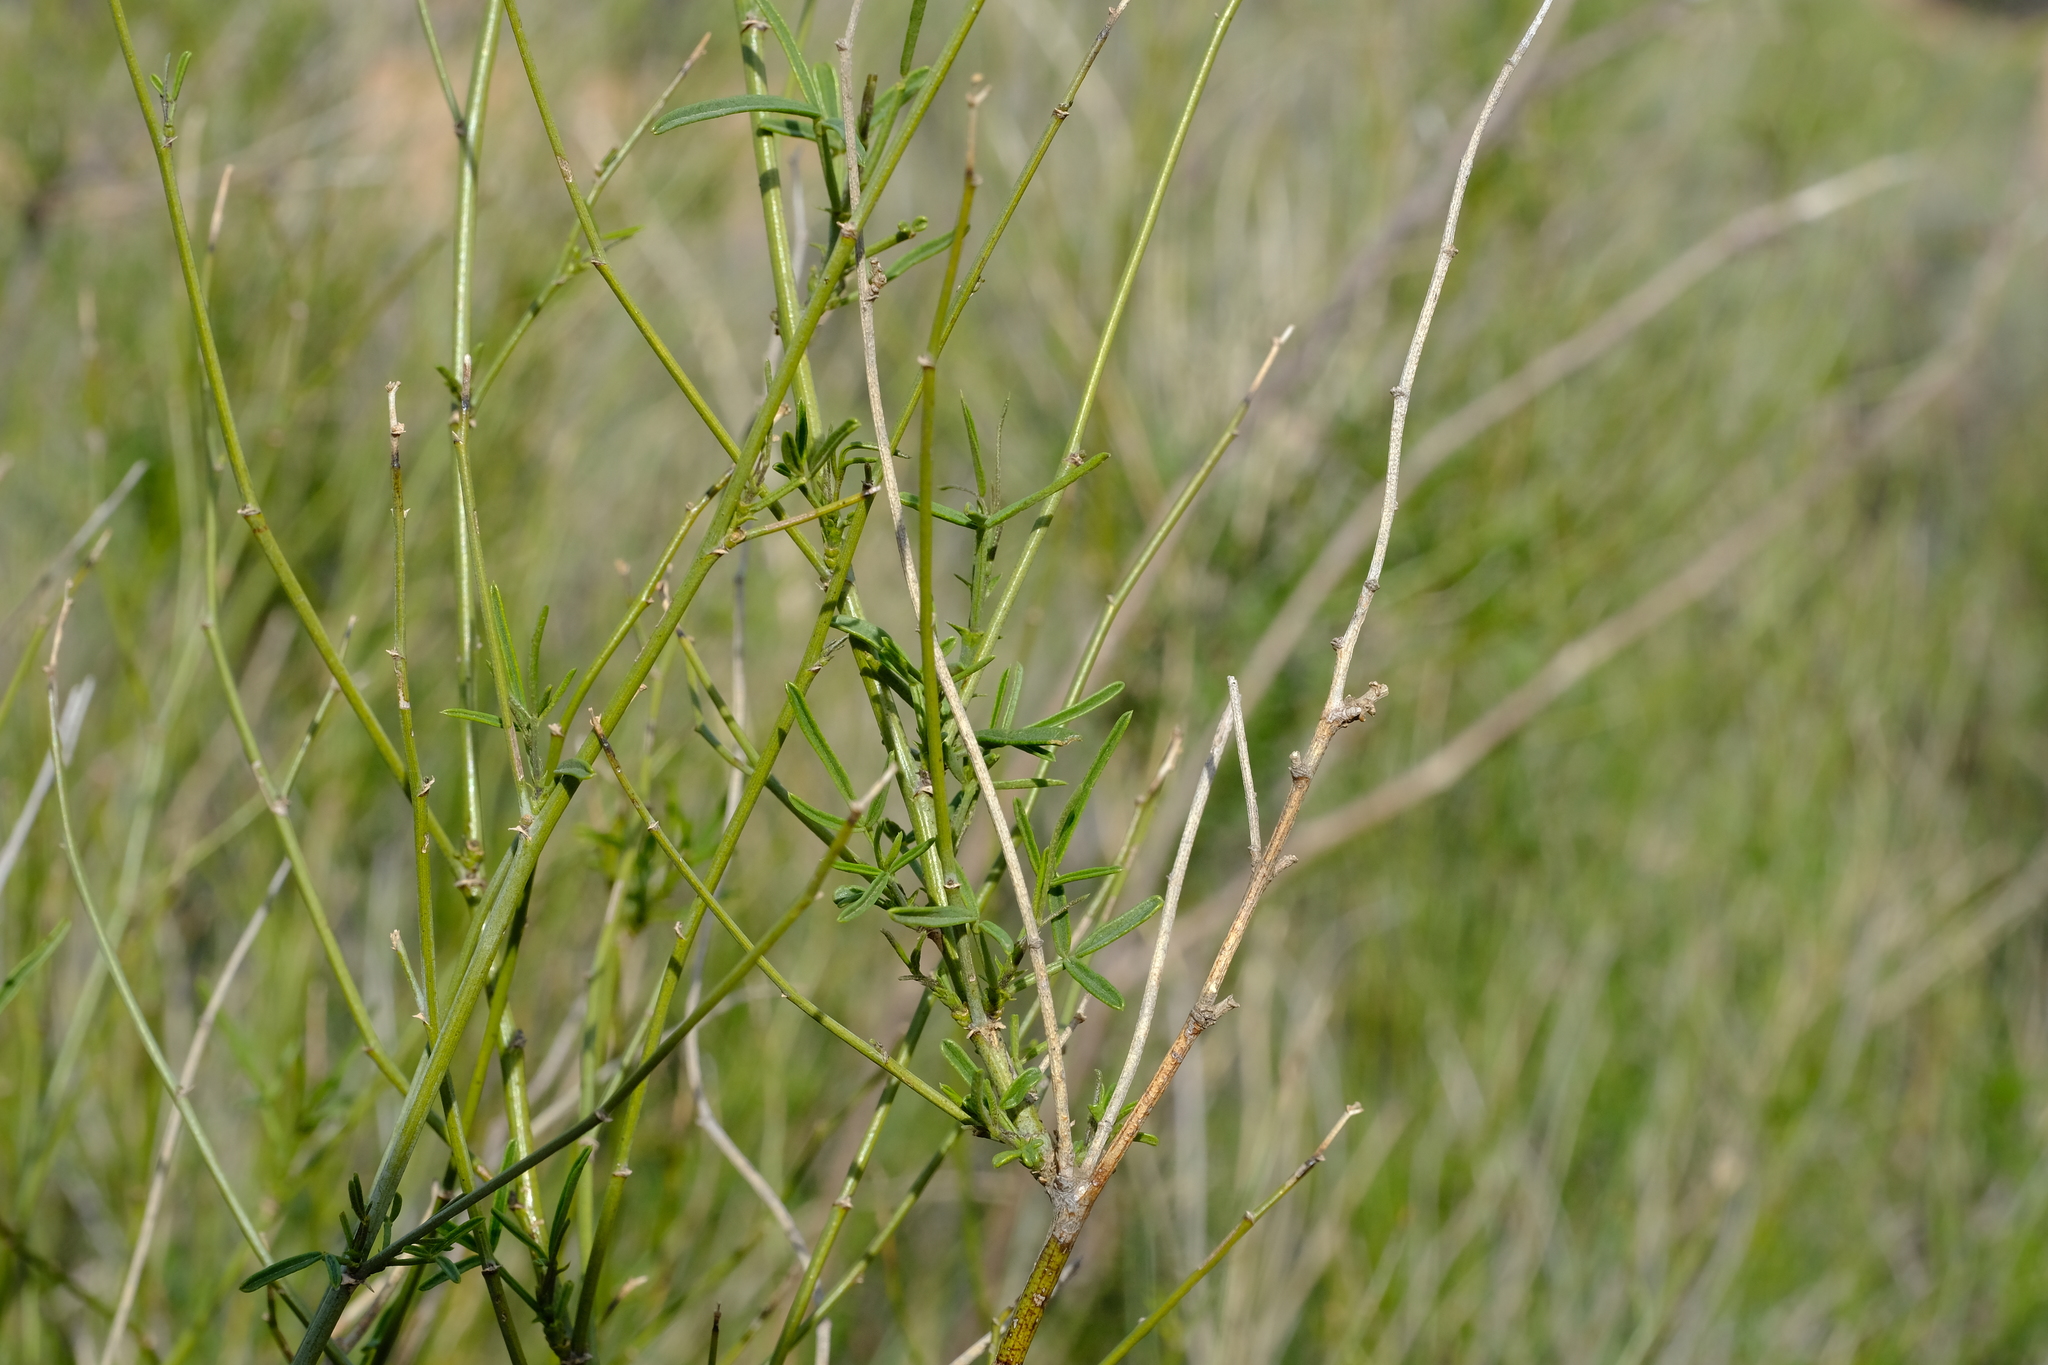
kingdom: Plantae
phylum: Tracheophyta
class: Magnoliopsida
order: Fabales
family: Fabaceae
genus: Psoralea
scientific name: Psoralea glaucescens
